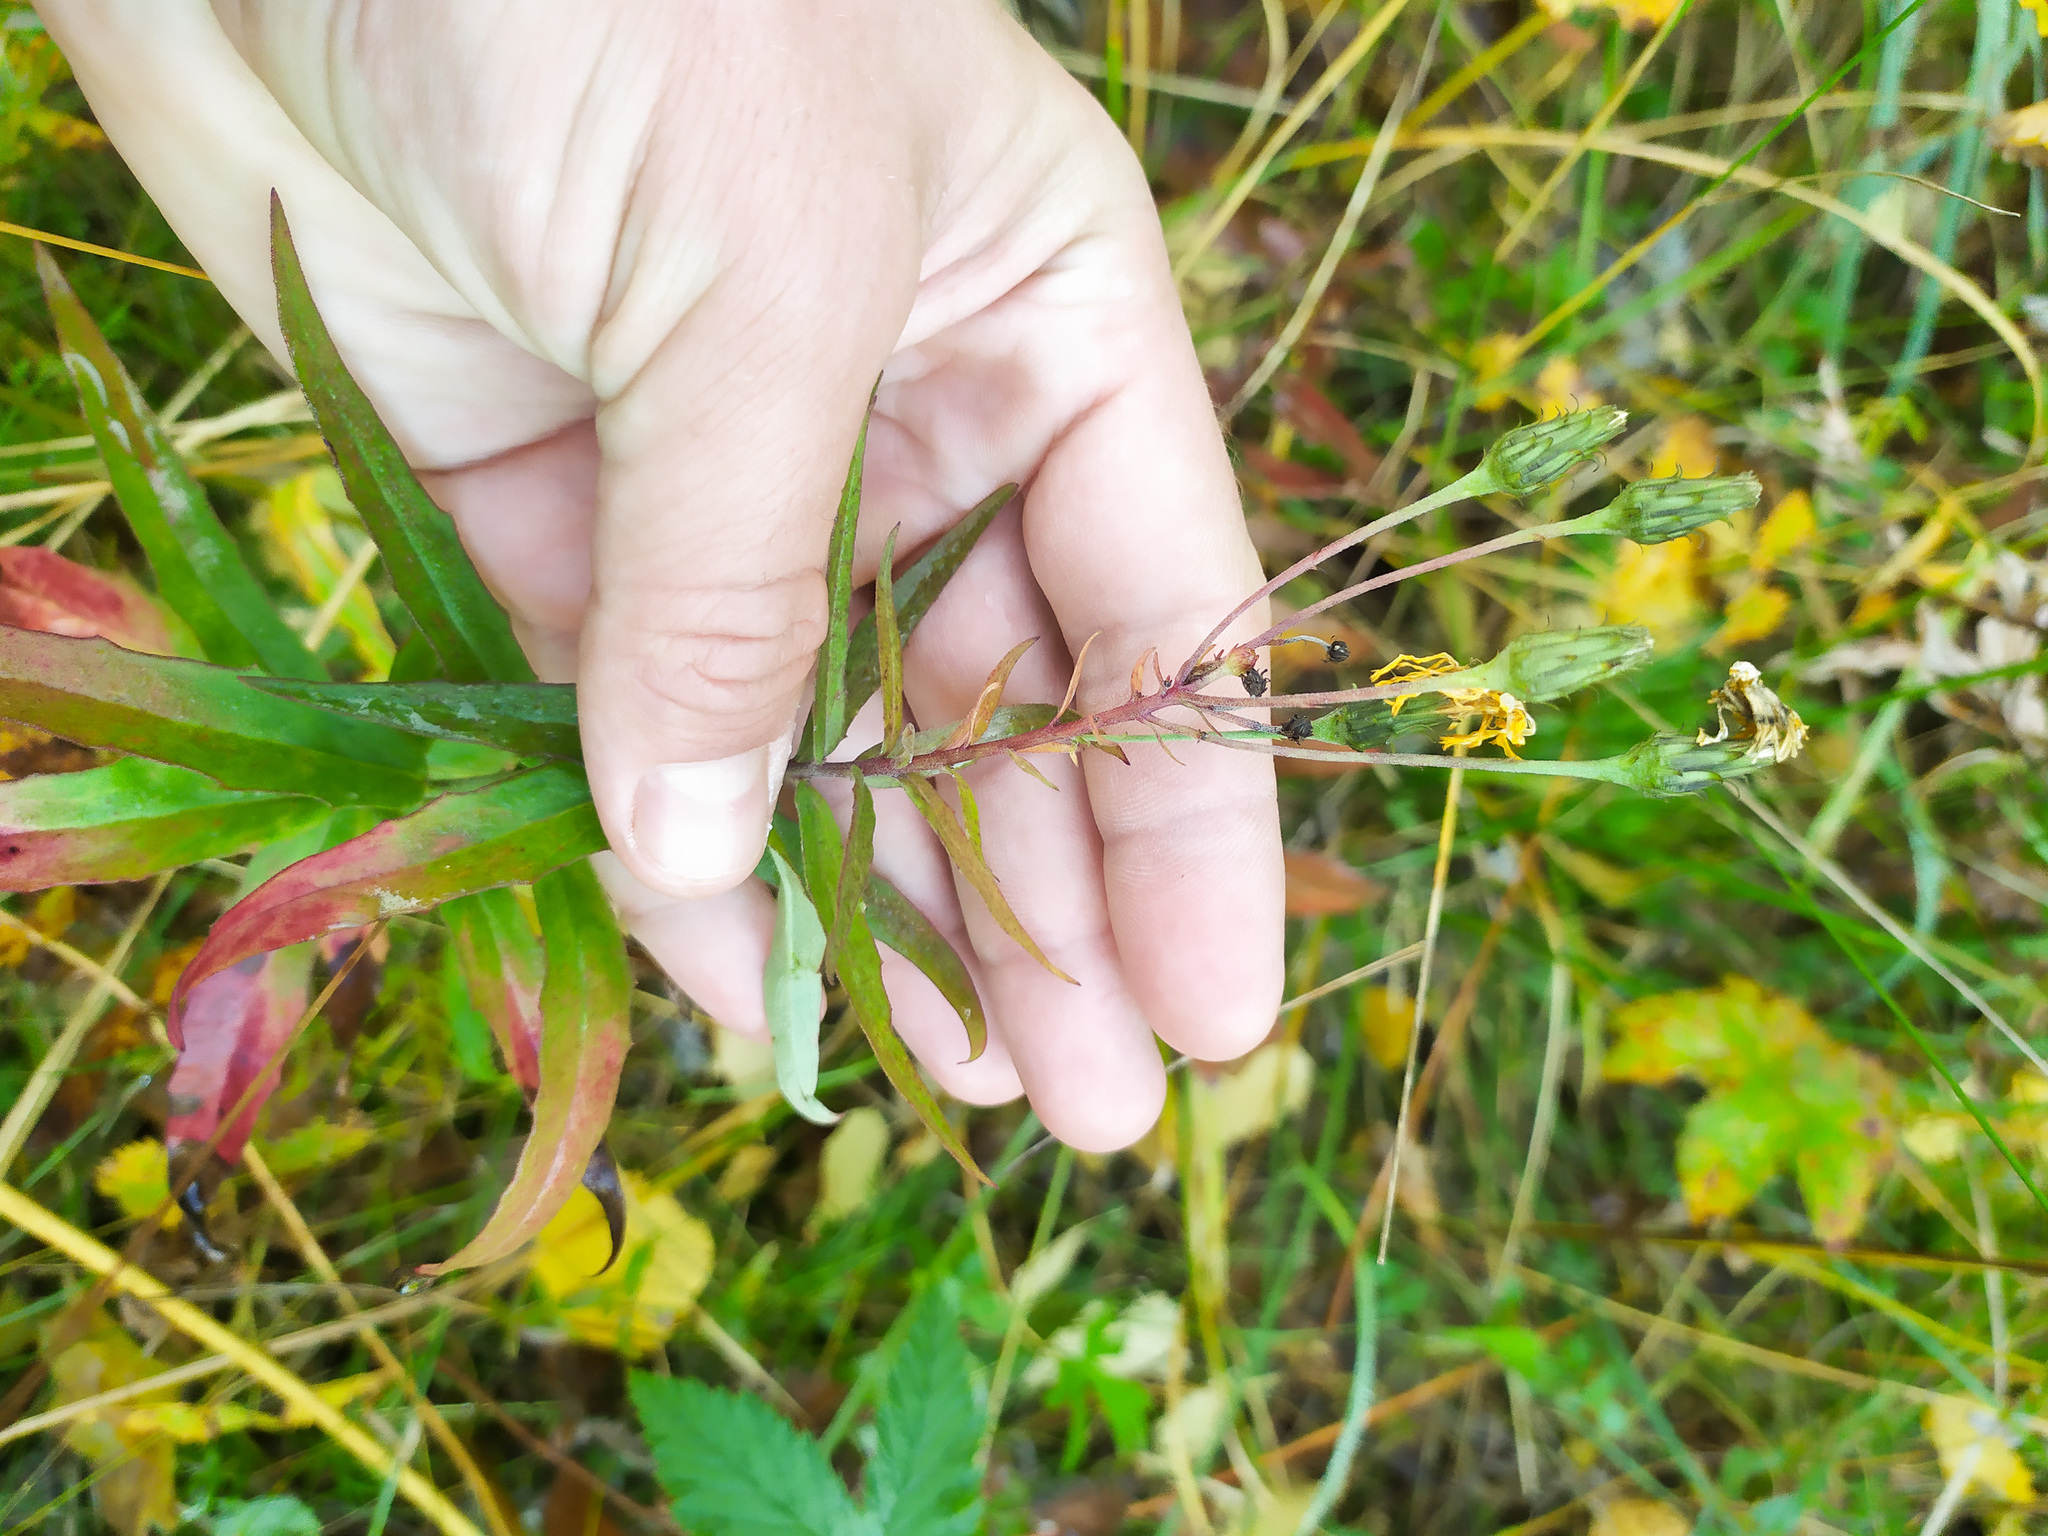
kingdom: Plantae
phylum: Tracheophyta
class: Magnoliopsida
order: Asterales
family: Asteraceae
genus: Hieracium
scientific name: Hieracium umbellatum
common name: Northern hawkweed
